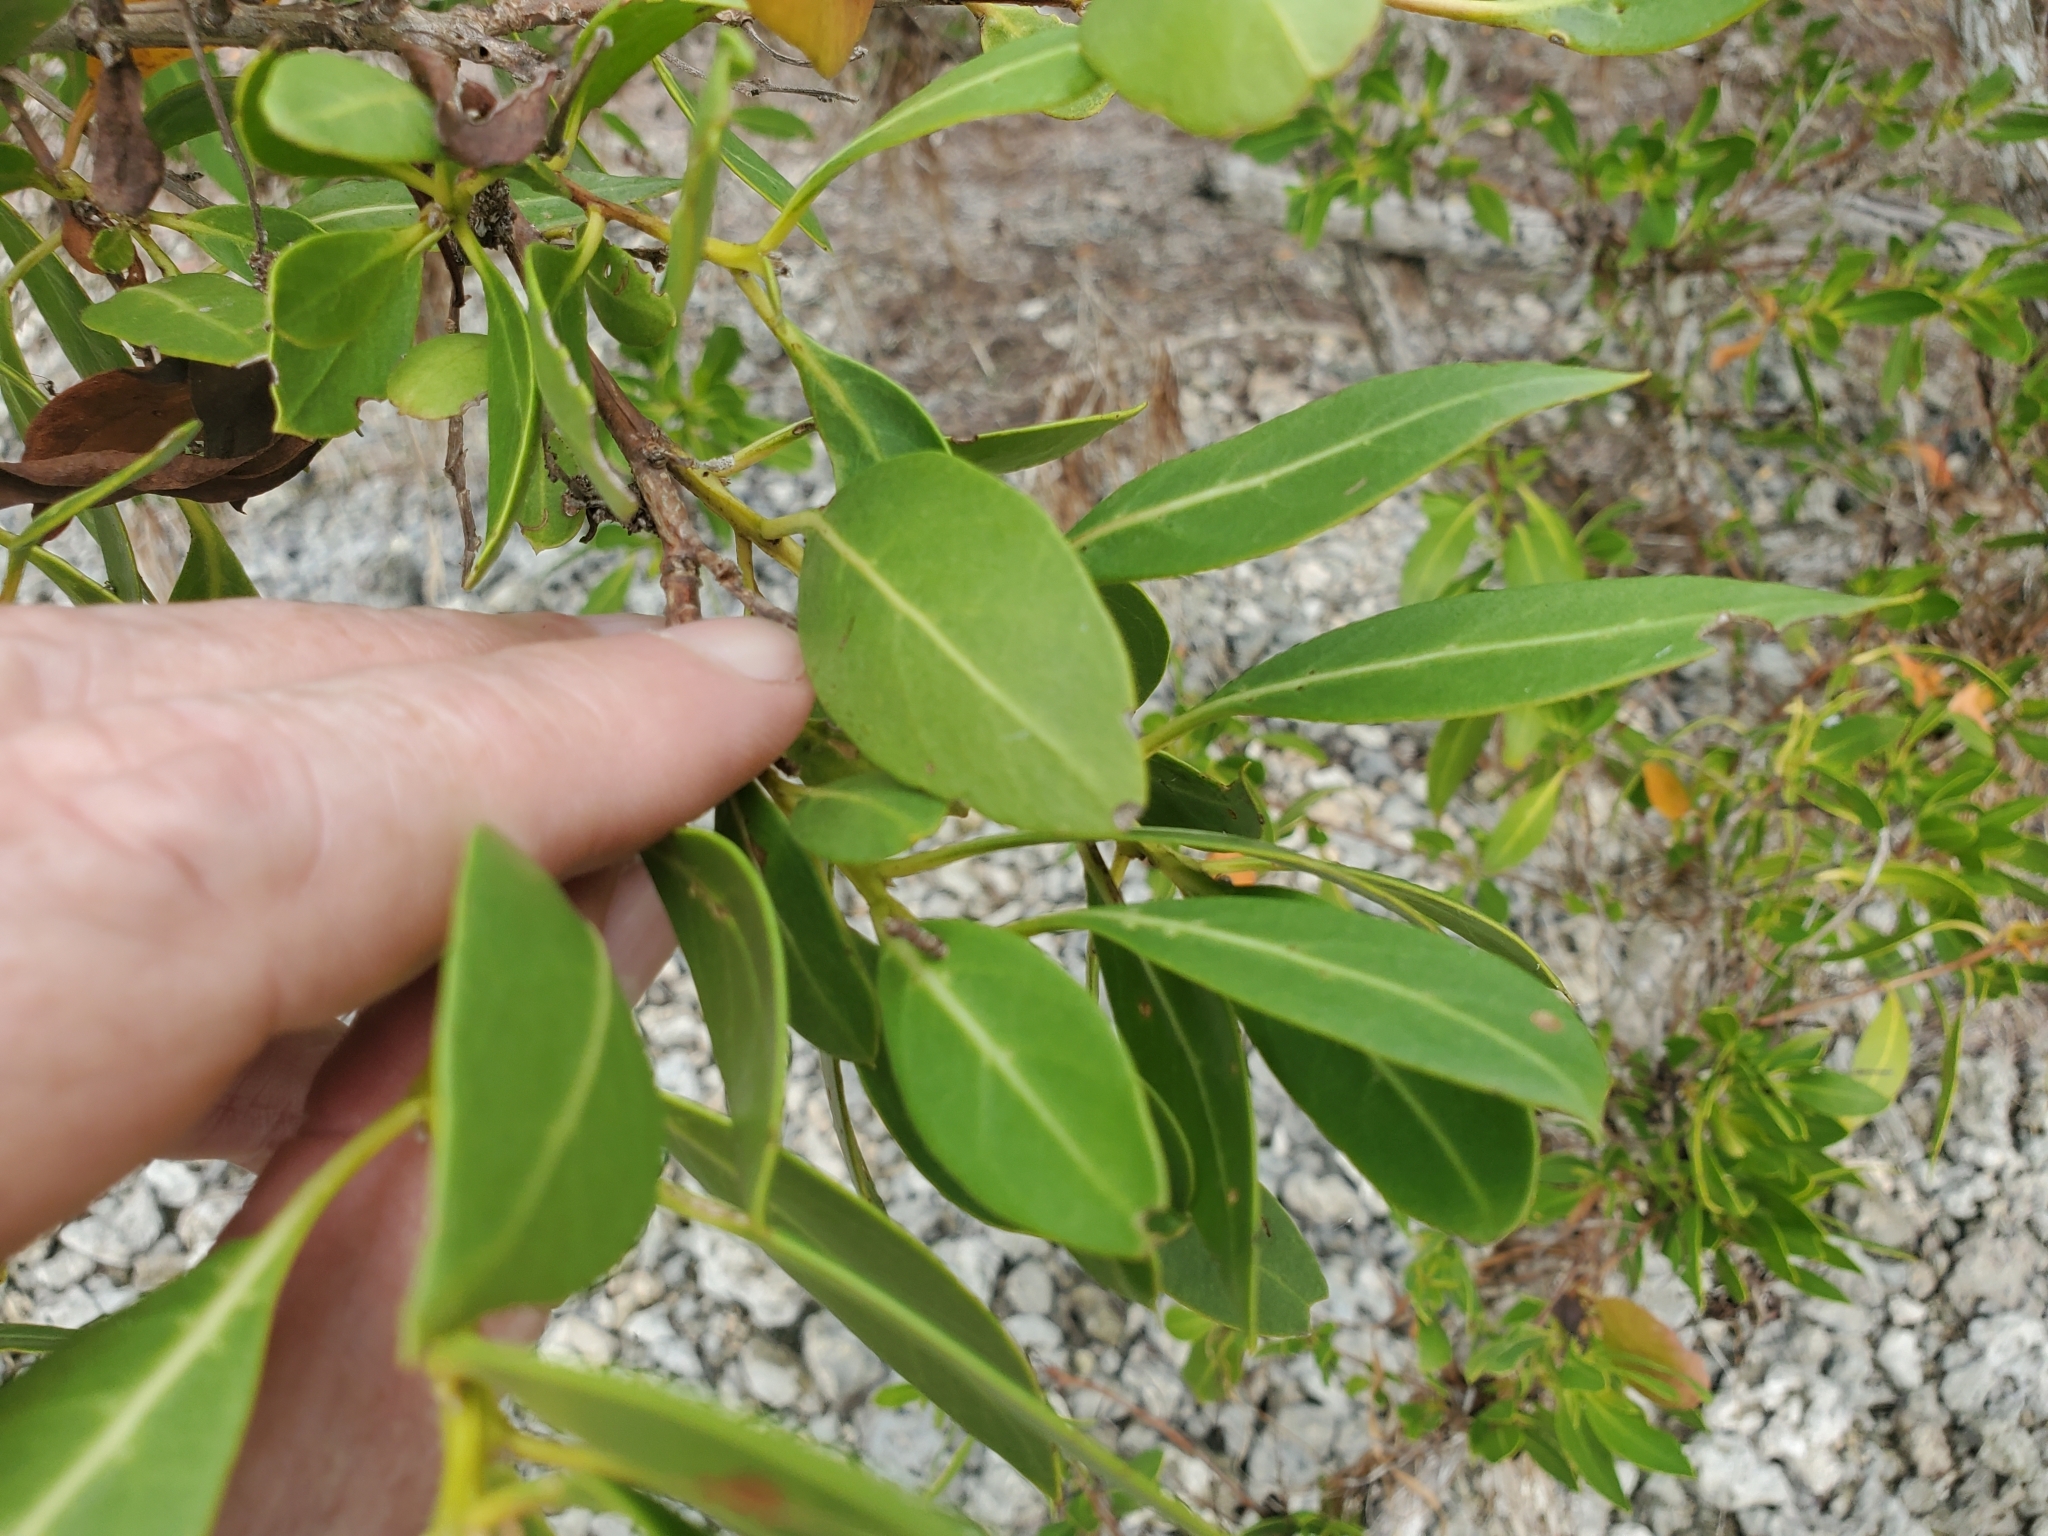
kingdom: Plantae
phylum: Tracheophyta
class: Magnoliopsida
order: Myrtales
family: Combretaceae
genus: Conocarpus
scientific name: Conocarpus erectus
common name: Button mangrove
